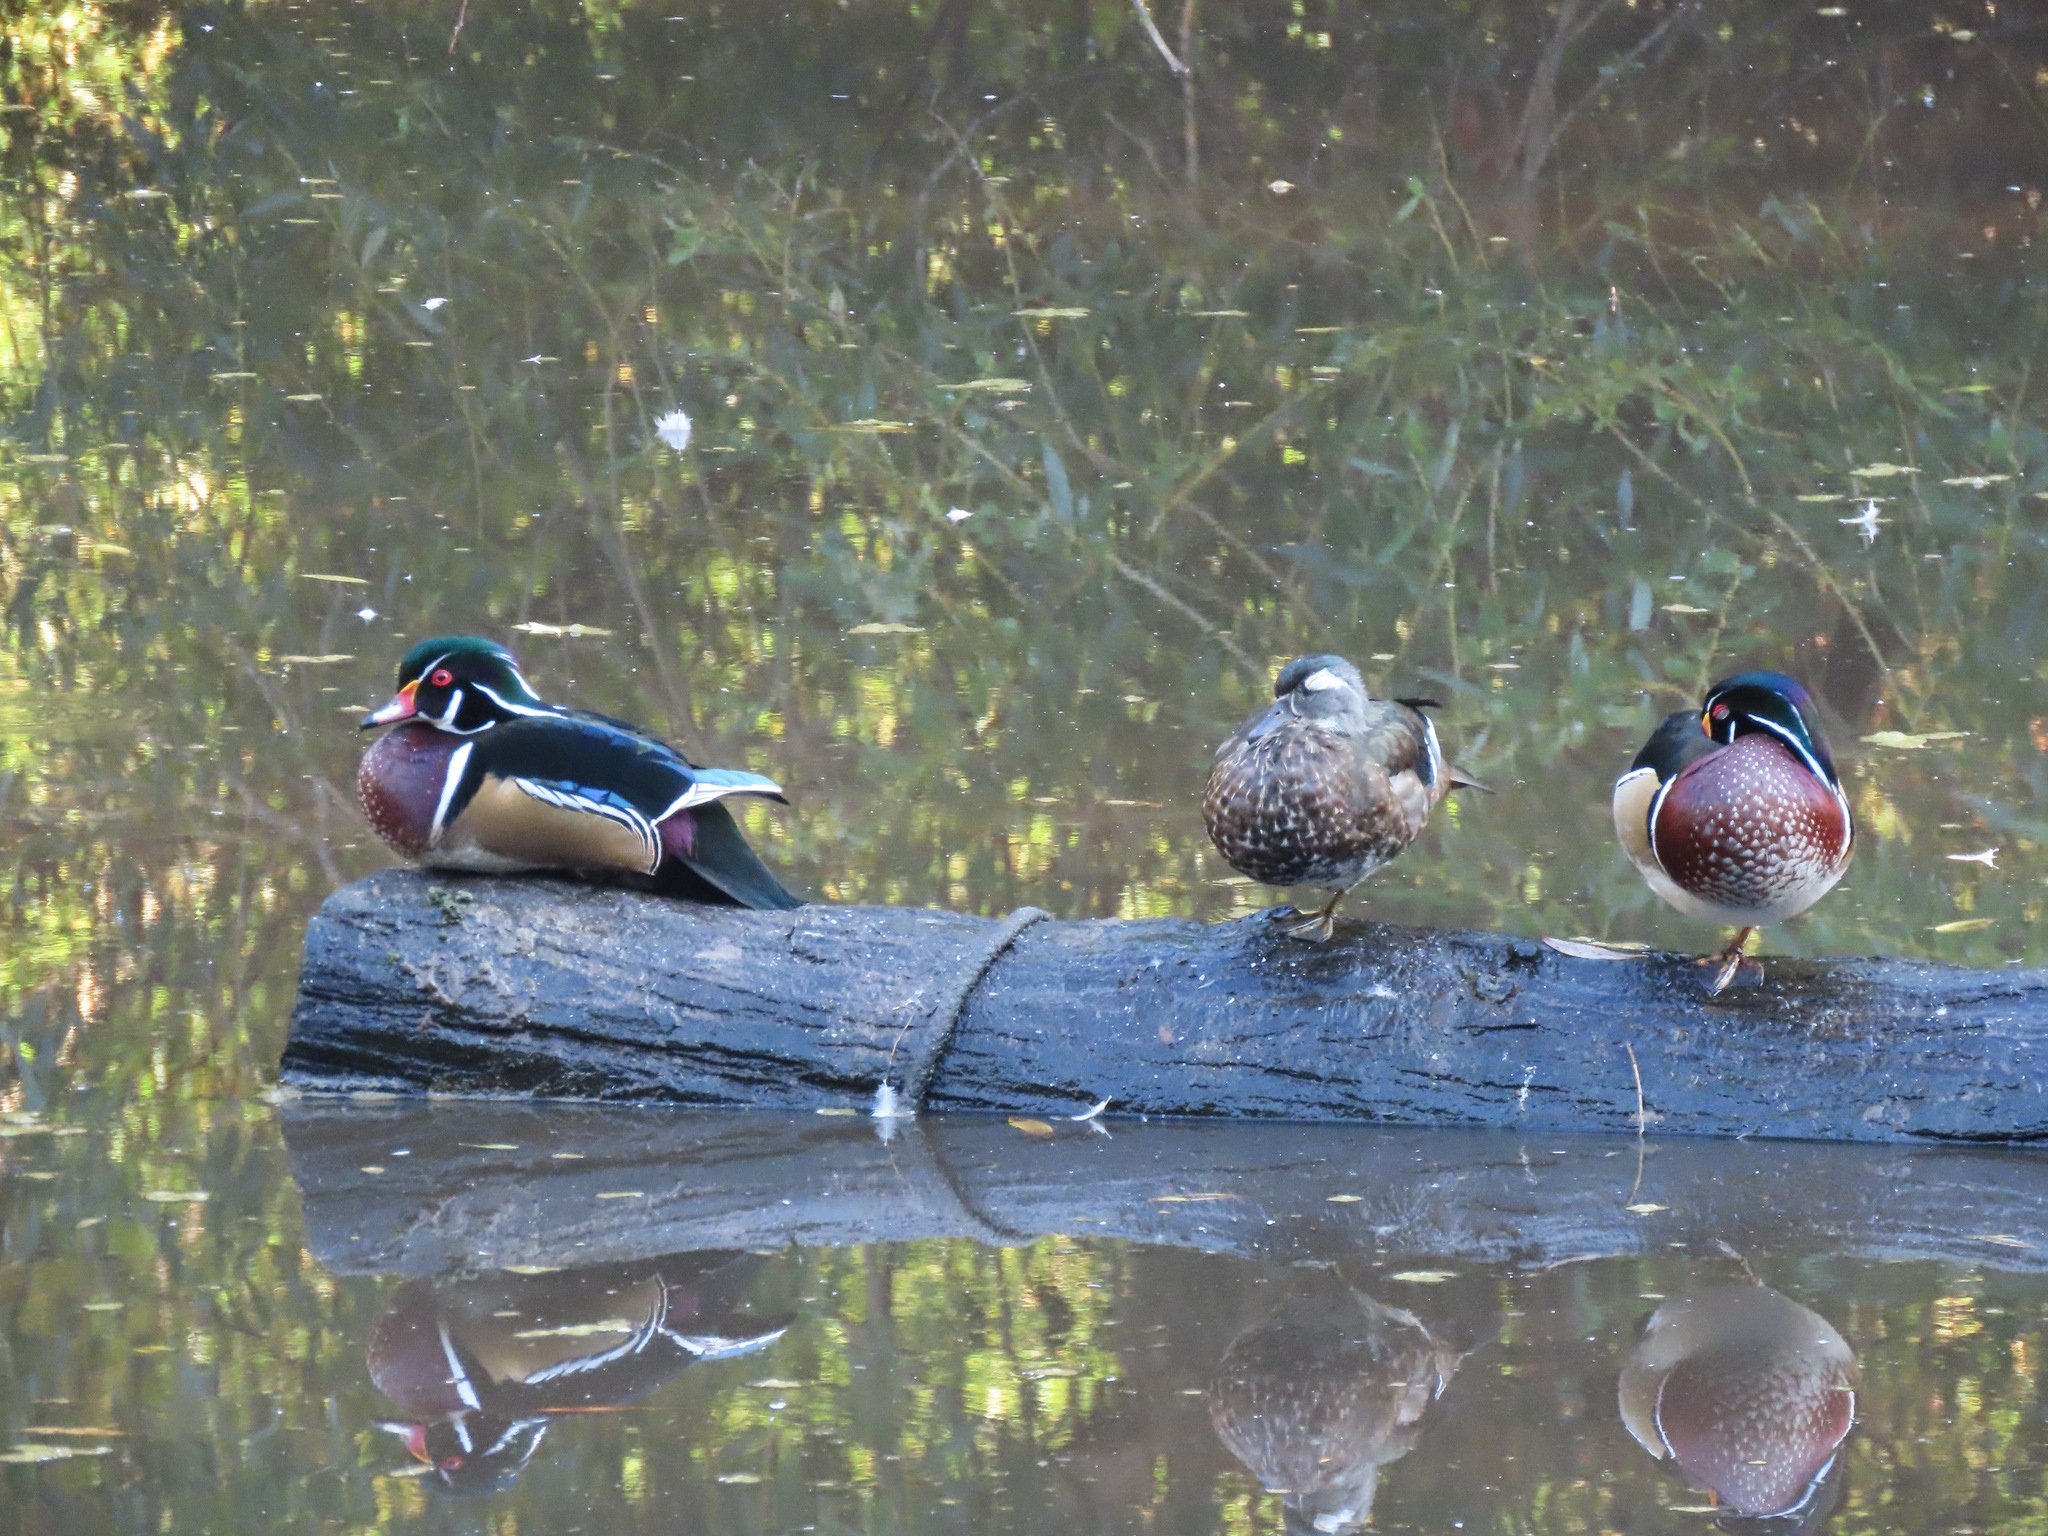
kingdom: Animalia
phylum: Chordata
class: Aves
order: Anseriformes
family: Anatidae
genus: Aix
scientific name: Aix sponsa
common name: Wood duck
